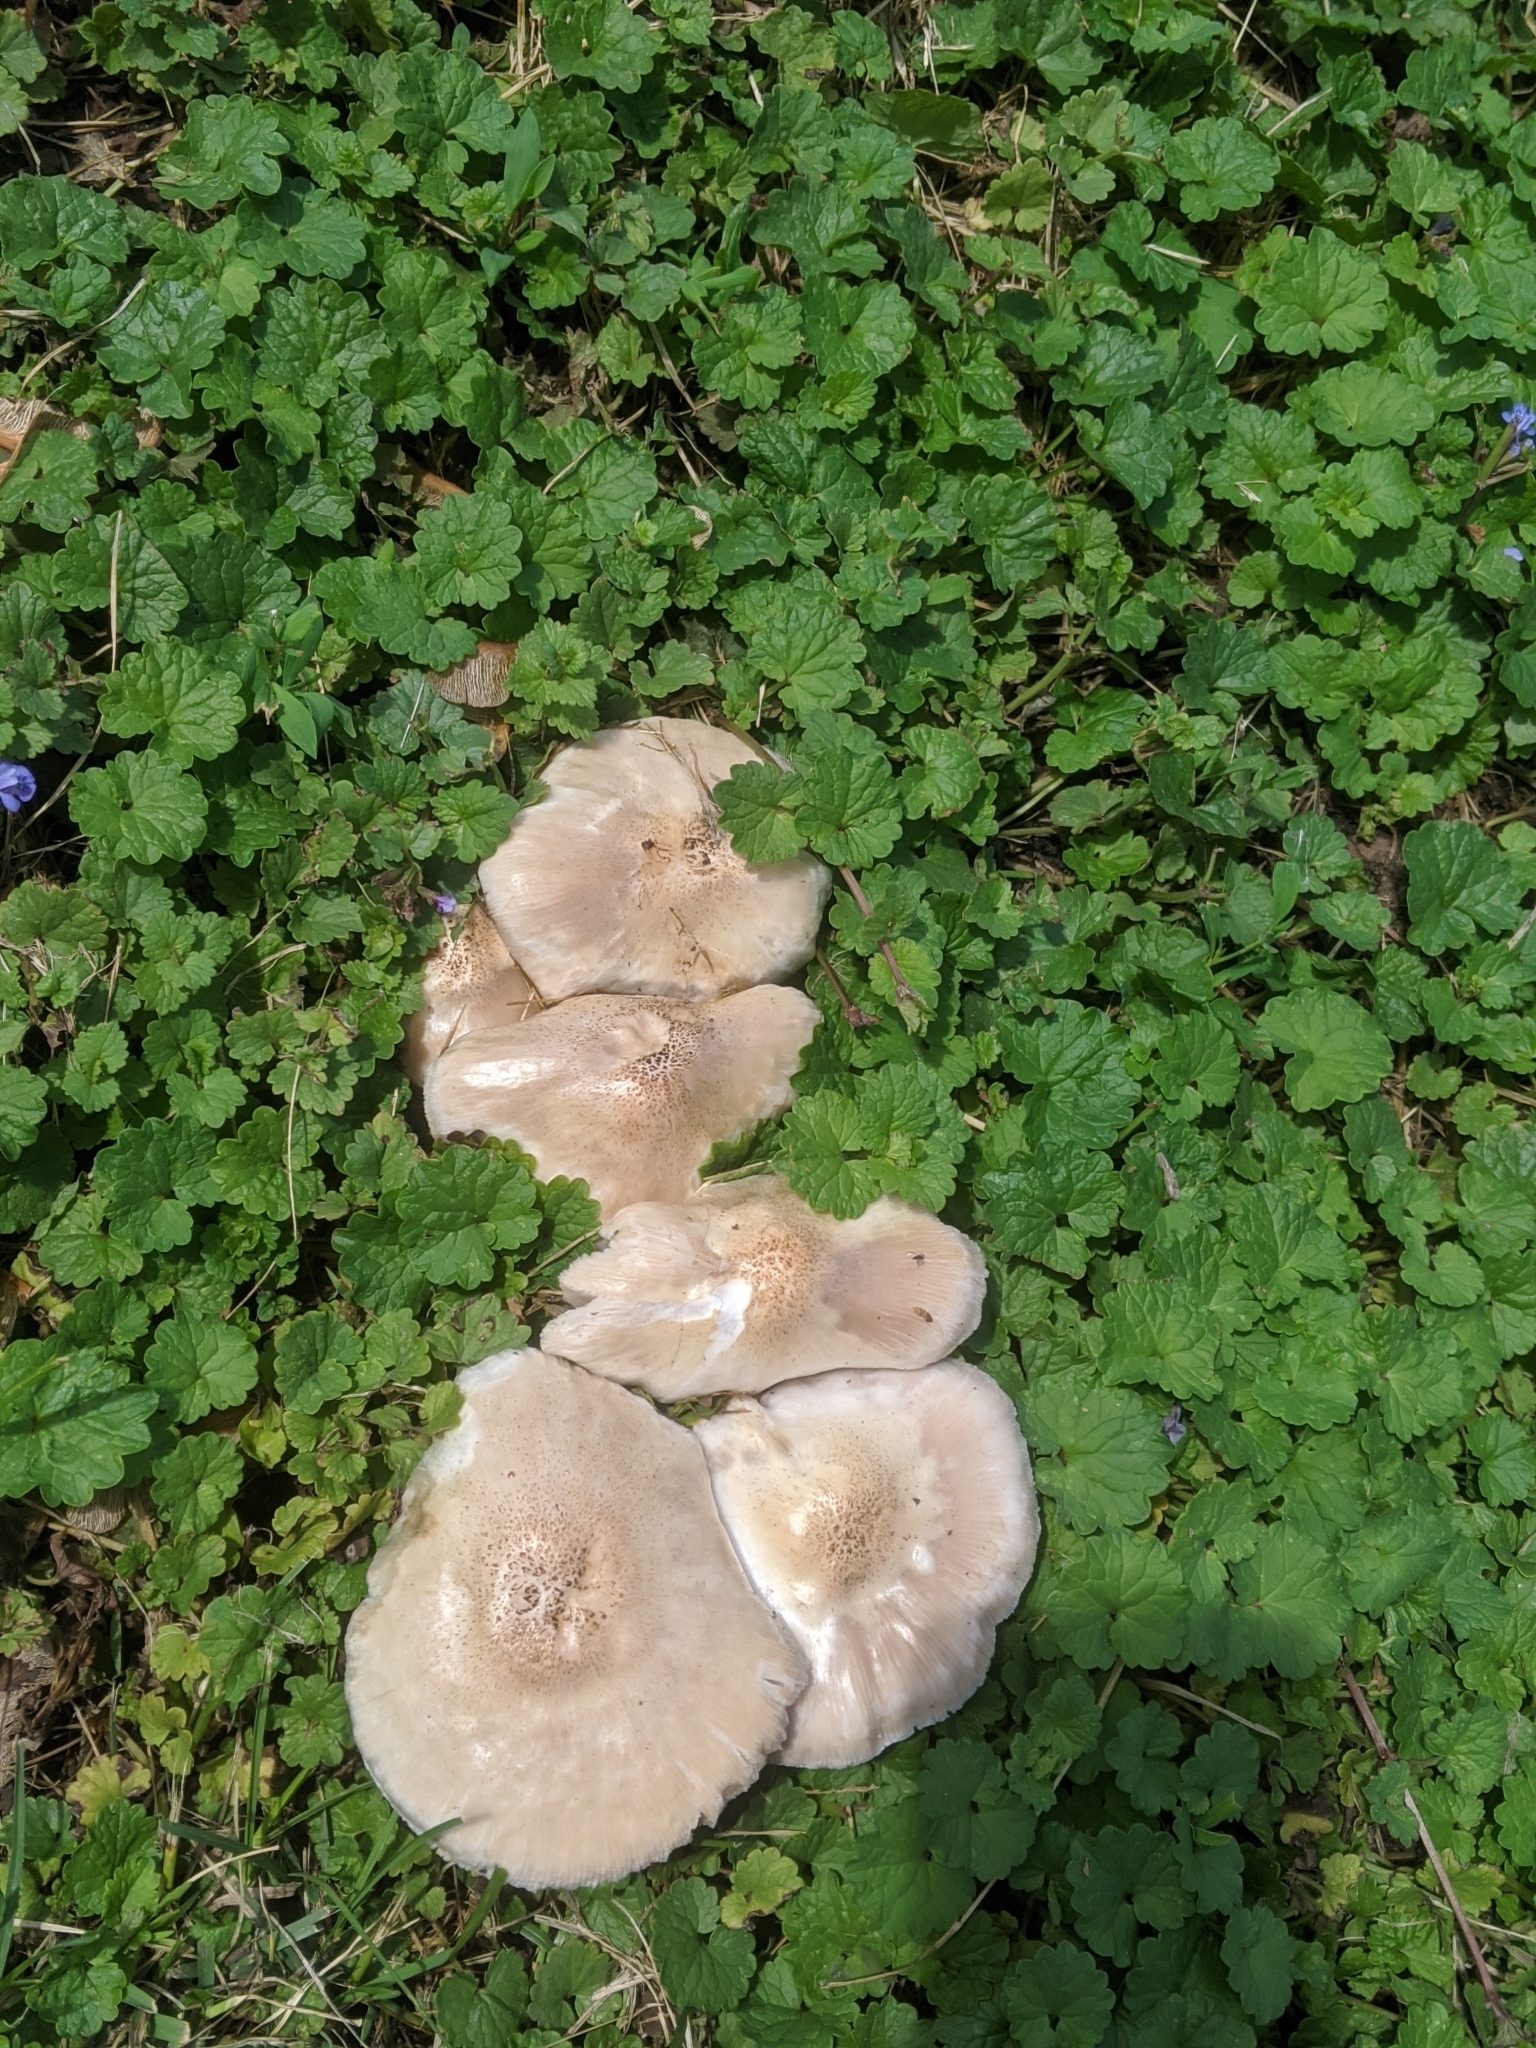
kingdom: Fungi
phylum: Basidiomycota
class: Agaricomycetes
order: Agaricales
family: Pluteaceae
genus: Pluteus
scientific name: Pluteus petasatus
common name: Scaly shield
